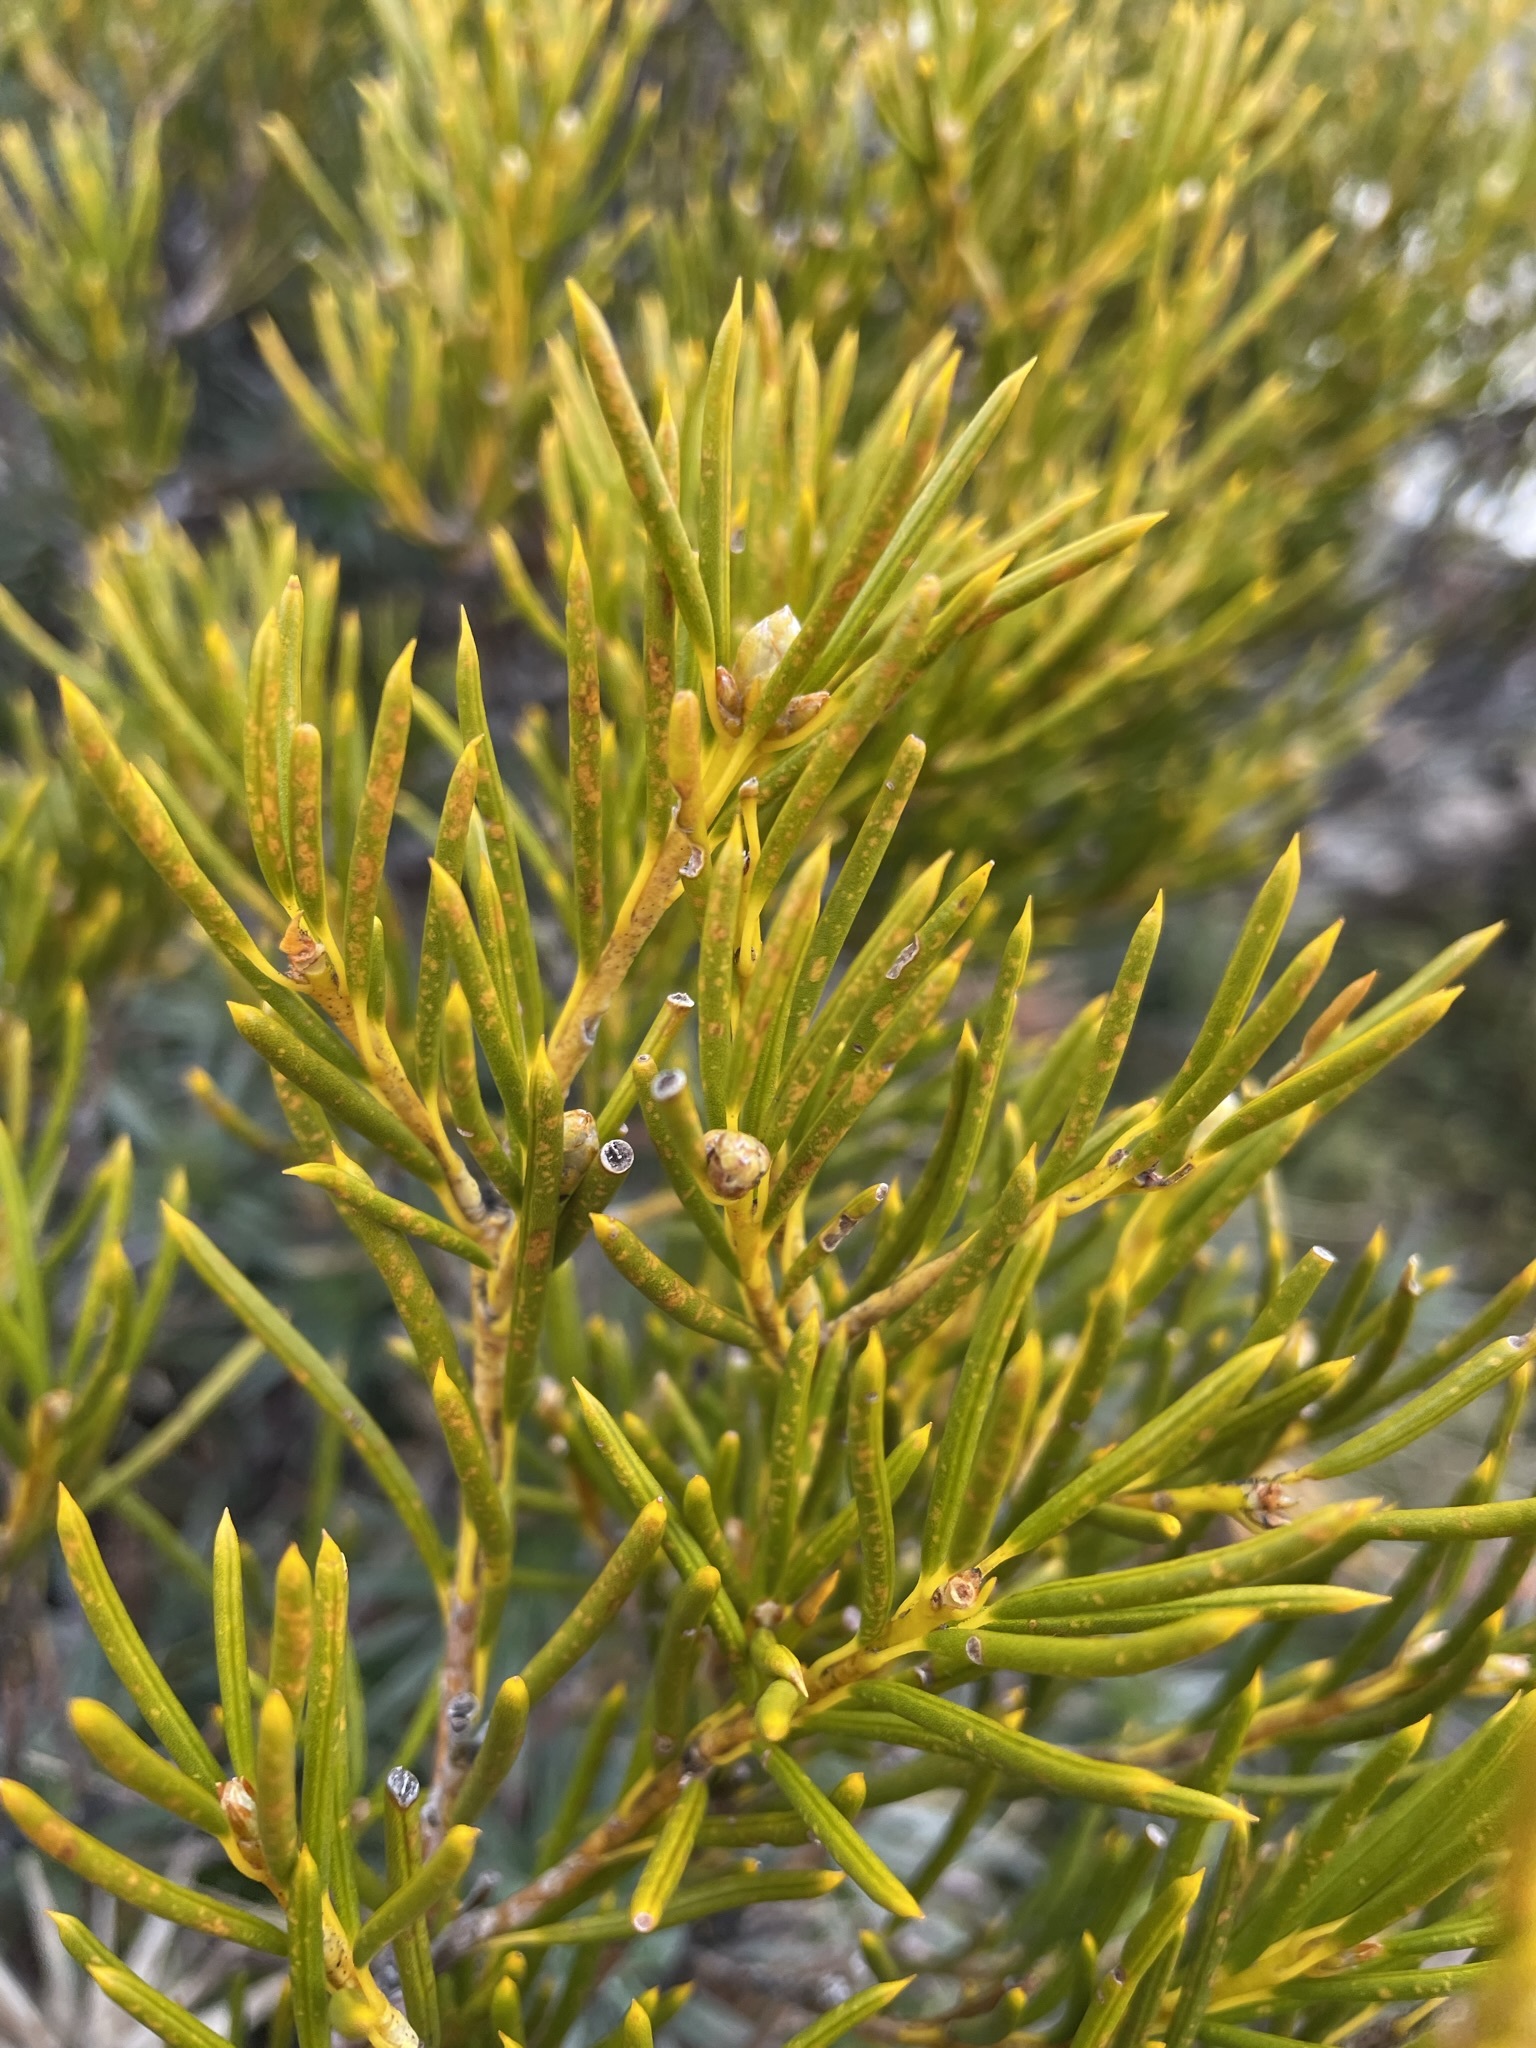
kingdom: Plantae
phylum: Tracheophyta
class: Magnoliopsida
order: Proteales
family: Proteaceae
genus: Orites
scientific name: Orites acicularis
